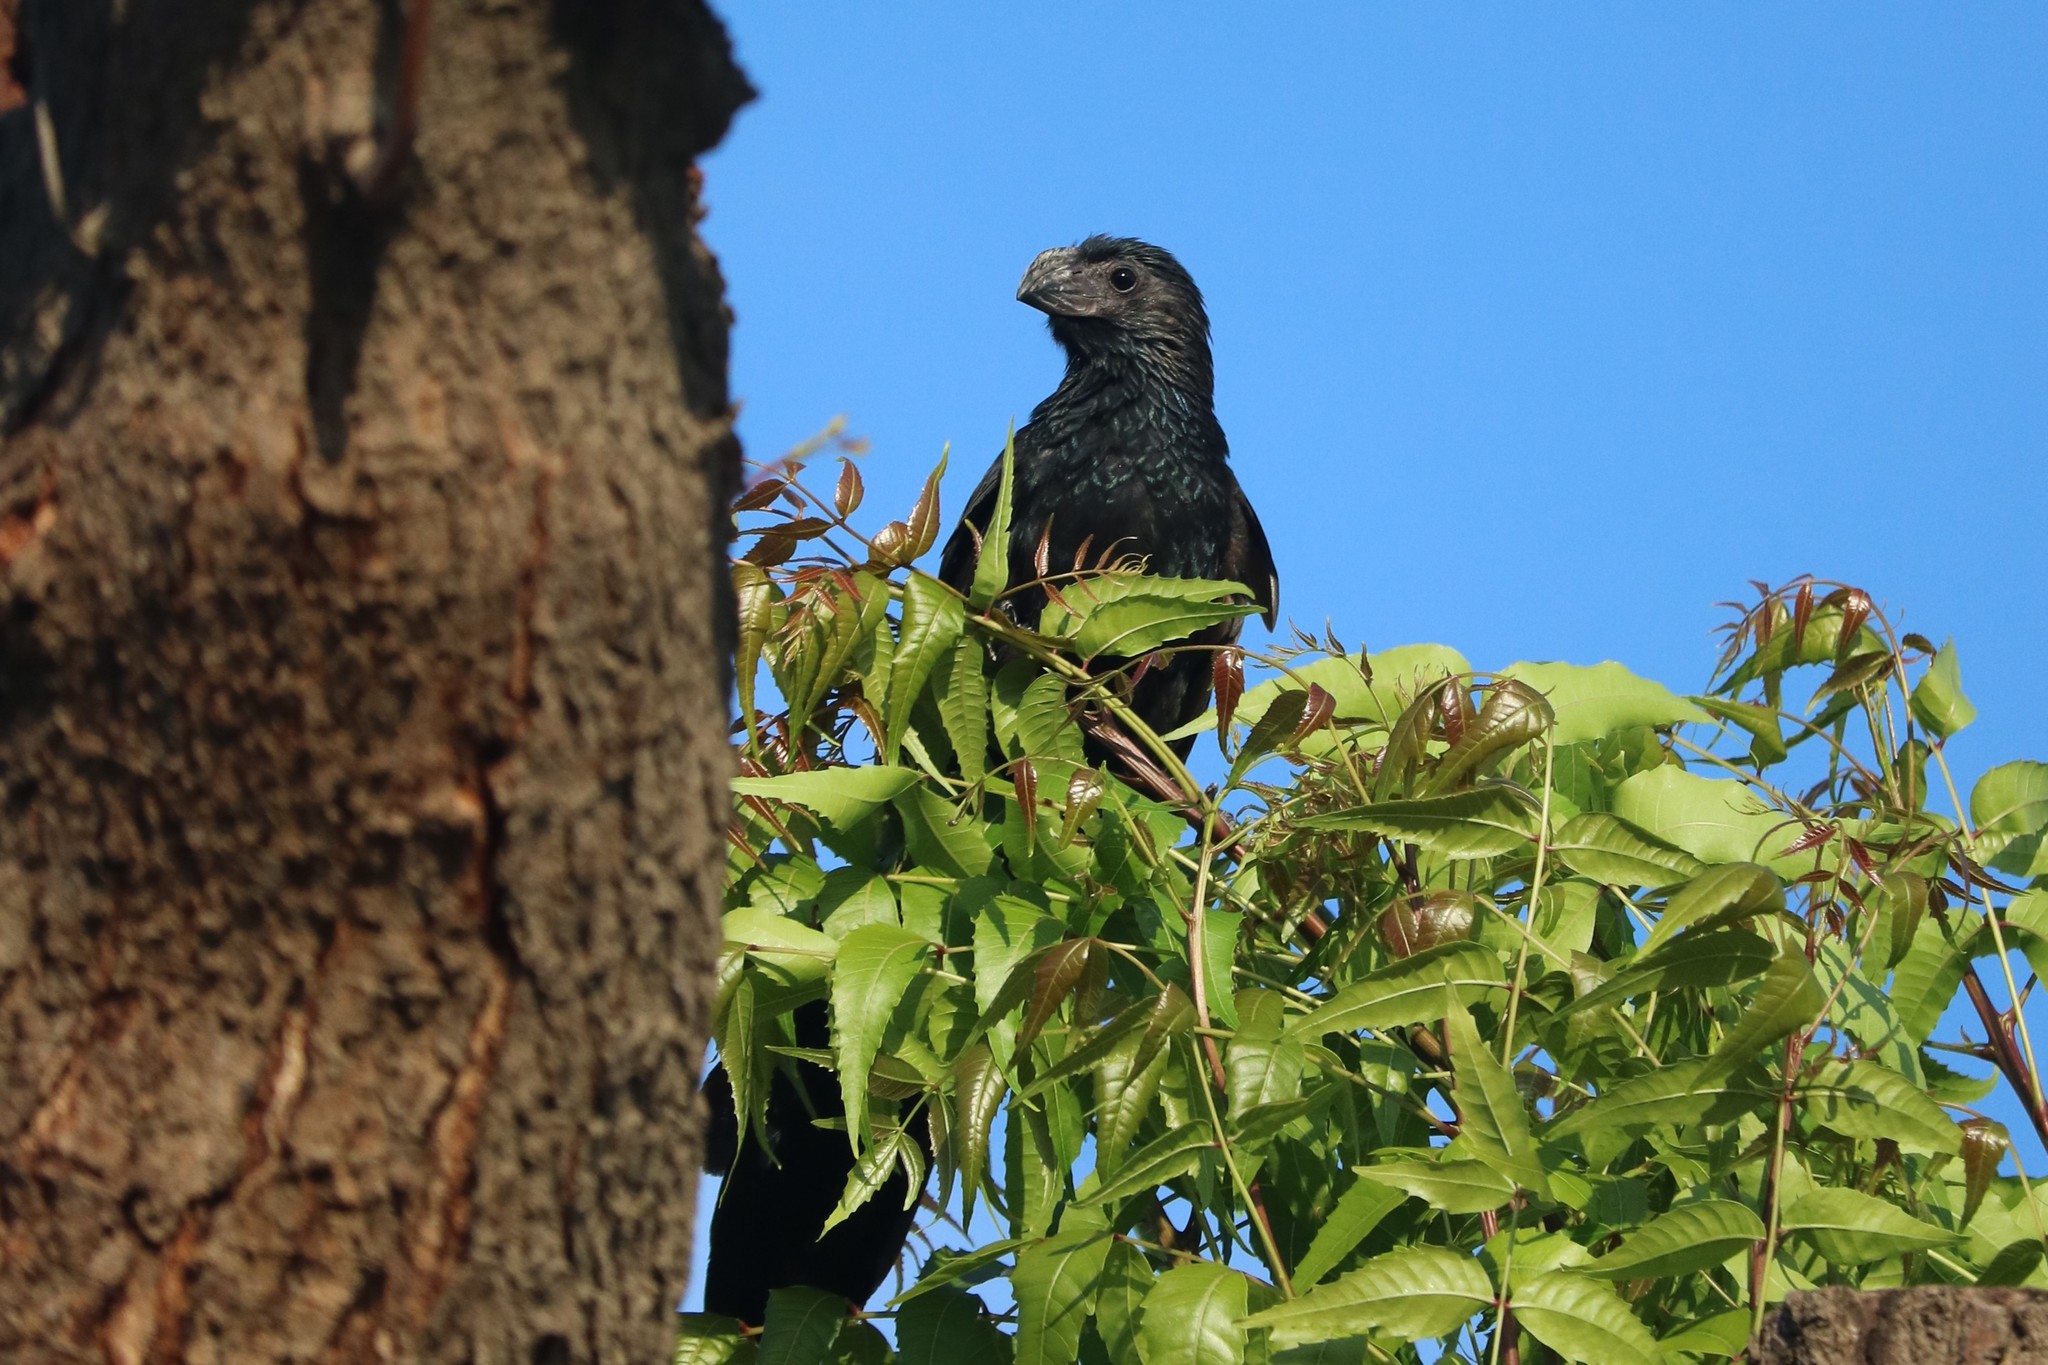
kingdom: Animalia
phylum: Chordata
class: Aves
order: Cuculiformes
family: Cuculidae
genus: Crotophaga
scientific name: Crotophaga sulcirostris
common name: Groove-billed ani
